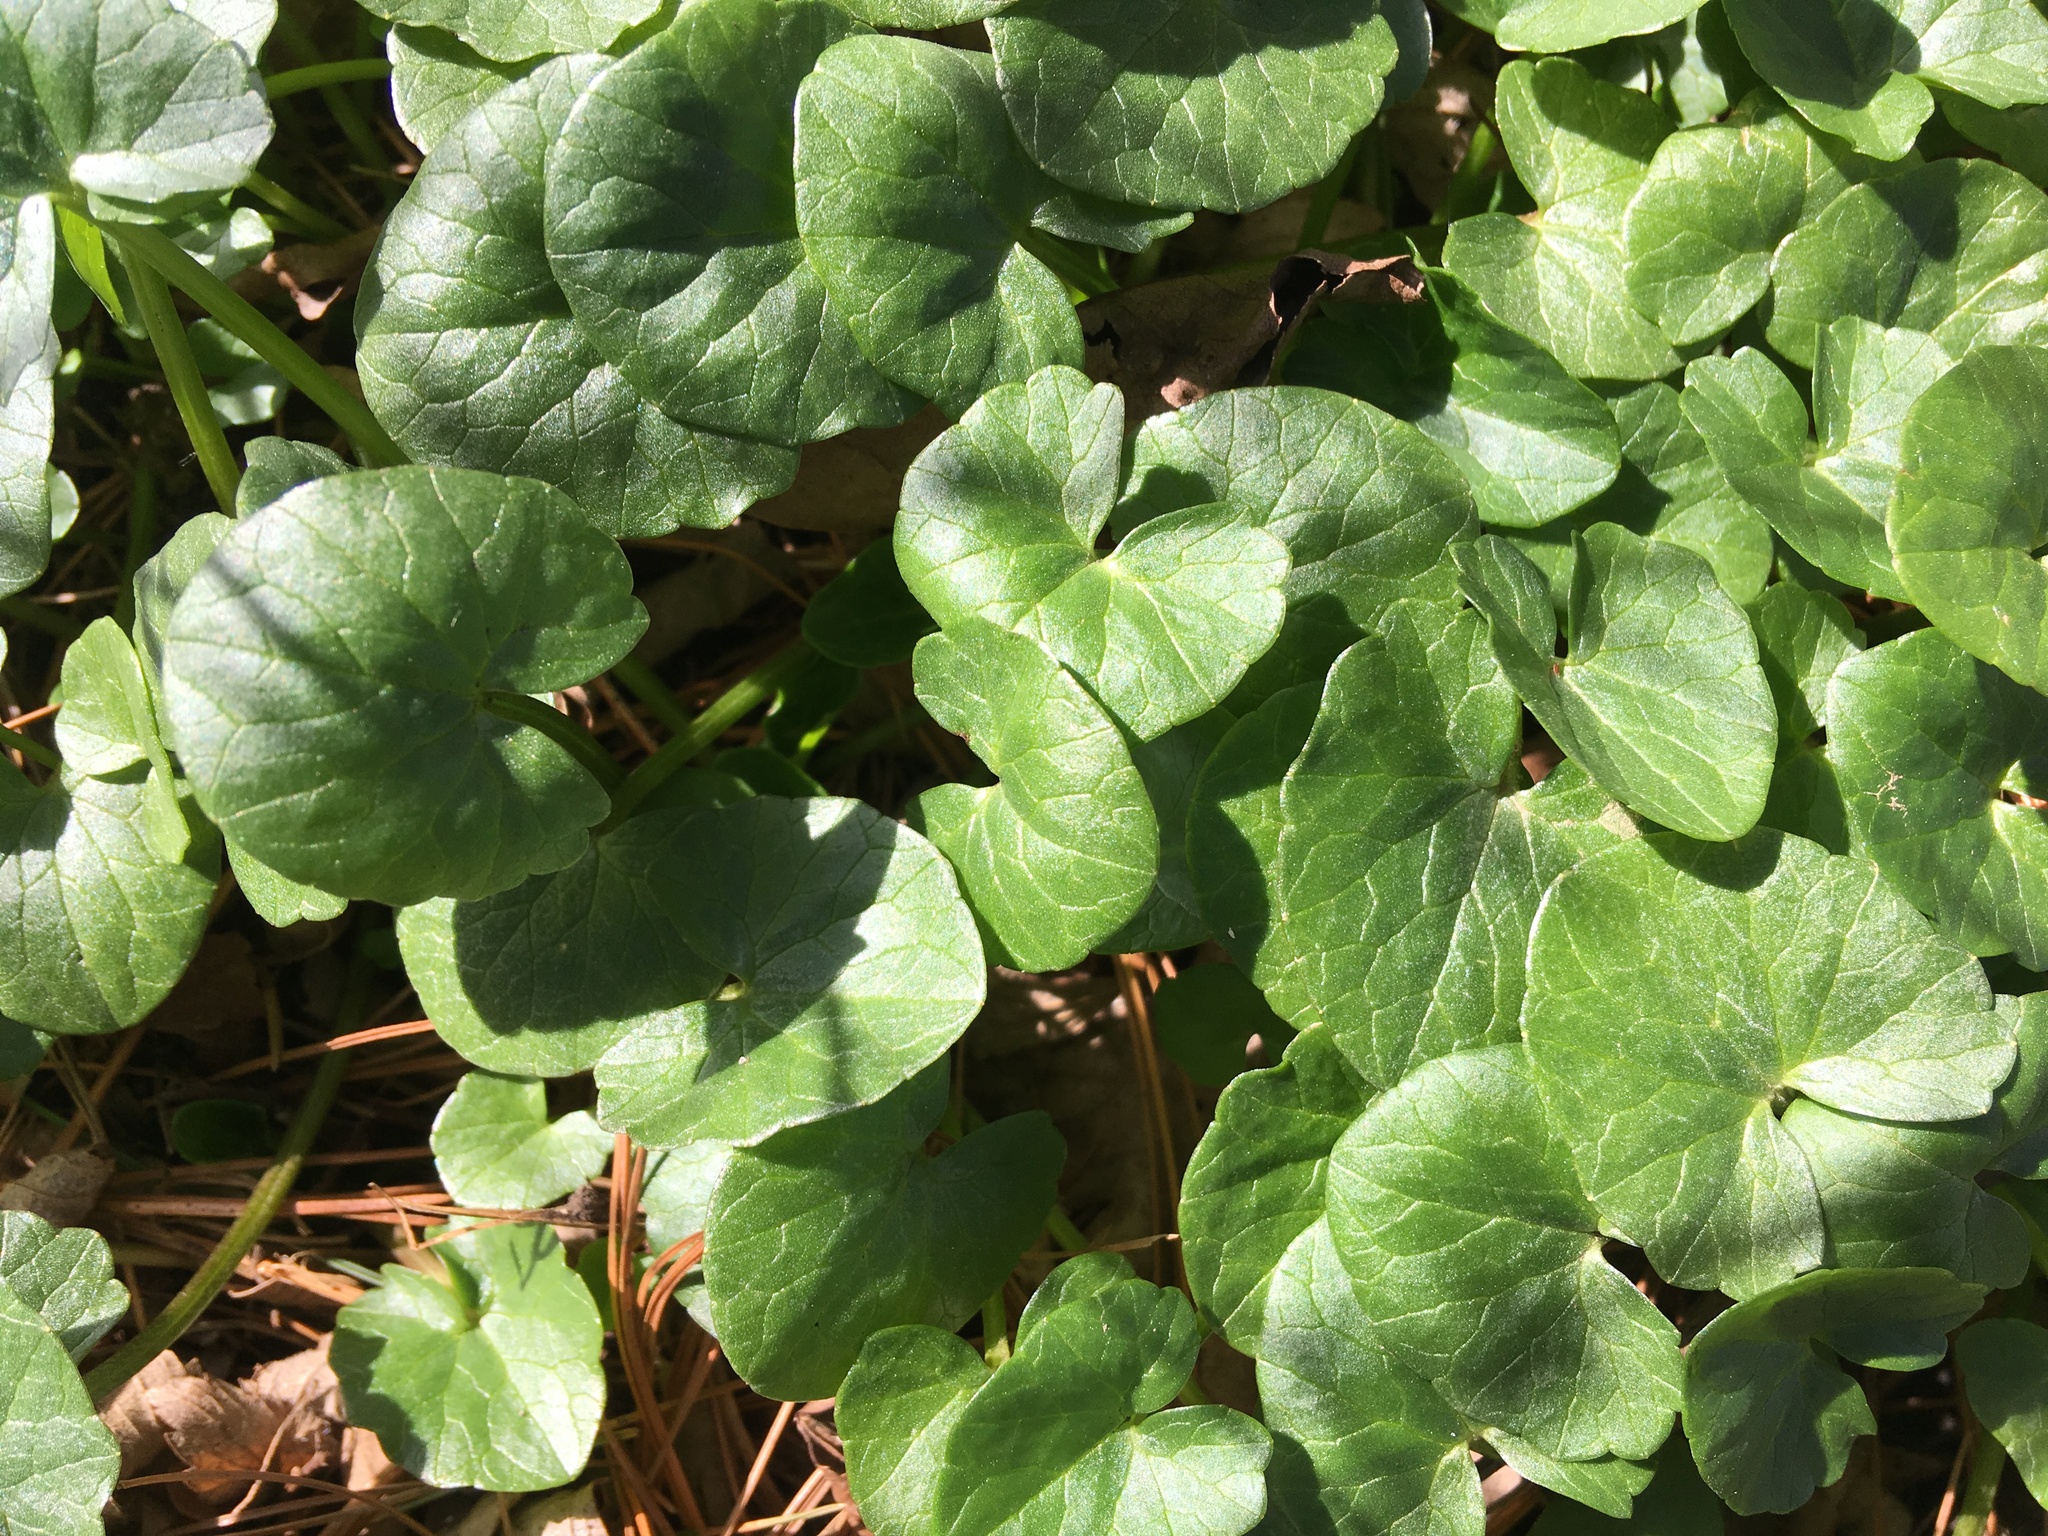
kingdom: Plantae
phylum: Tracheophyta
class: Magnoliopsida
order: Ranunculales
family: Ranunculaceae
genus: Ficaria
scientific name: Ficaria verna
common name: Lesser celandine
